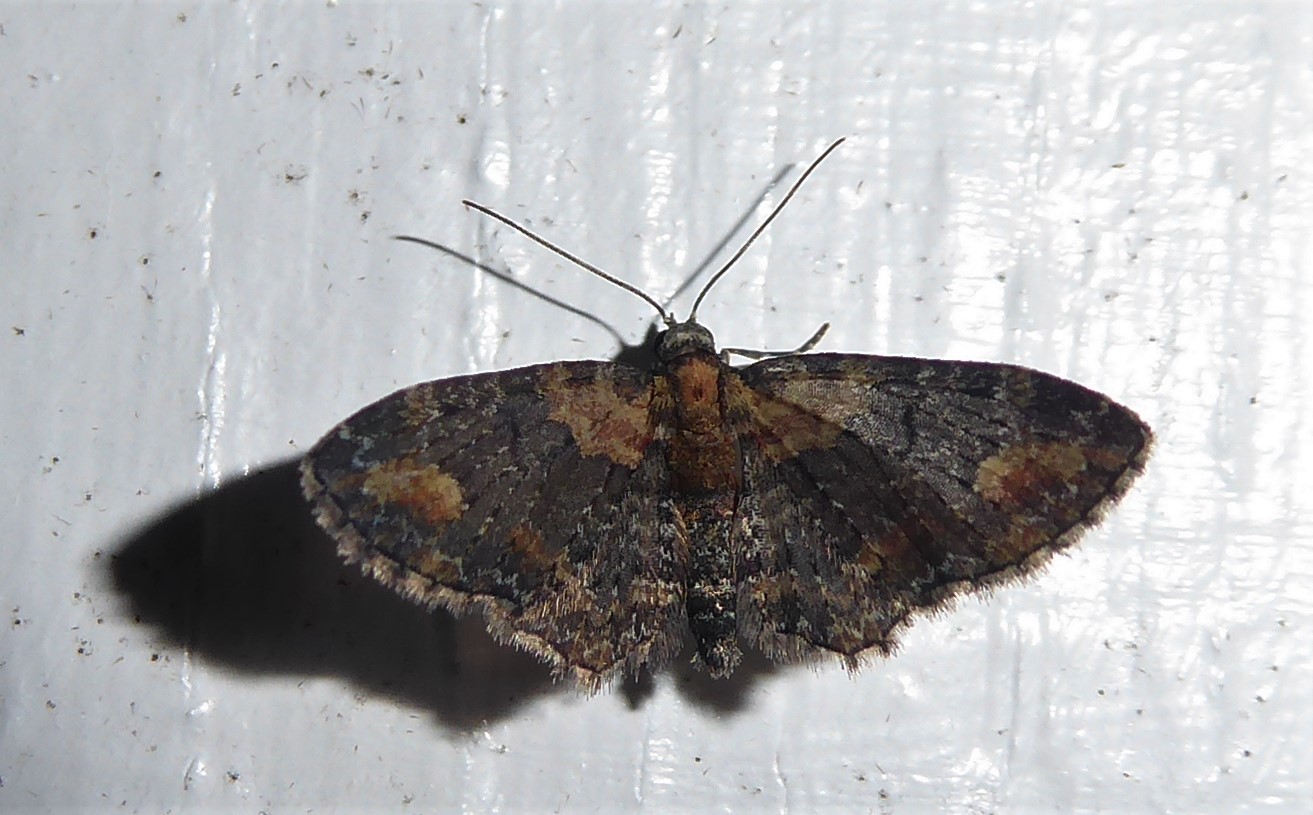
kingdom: Animalia
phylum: Arthropoda
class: Insecta
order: Lepidoptera
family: Geometridae
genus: Pasiphilodes
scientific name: Pasiphilodes testulata
